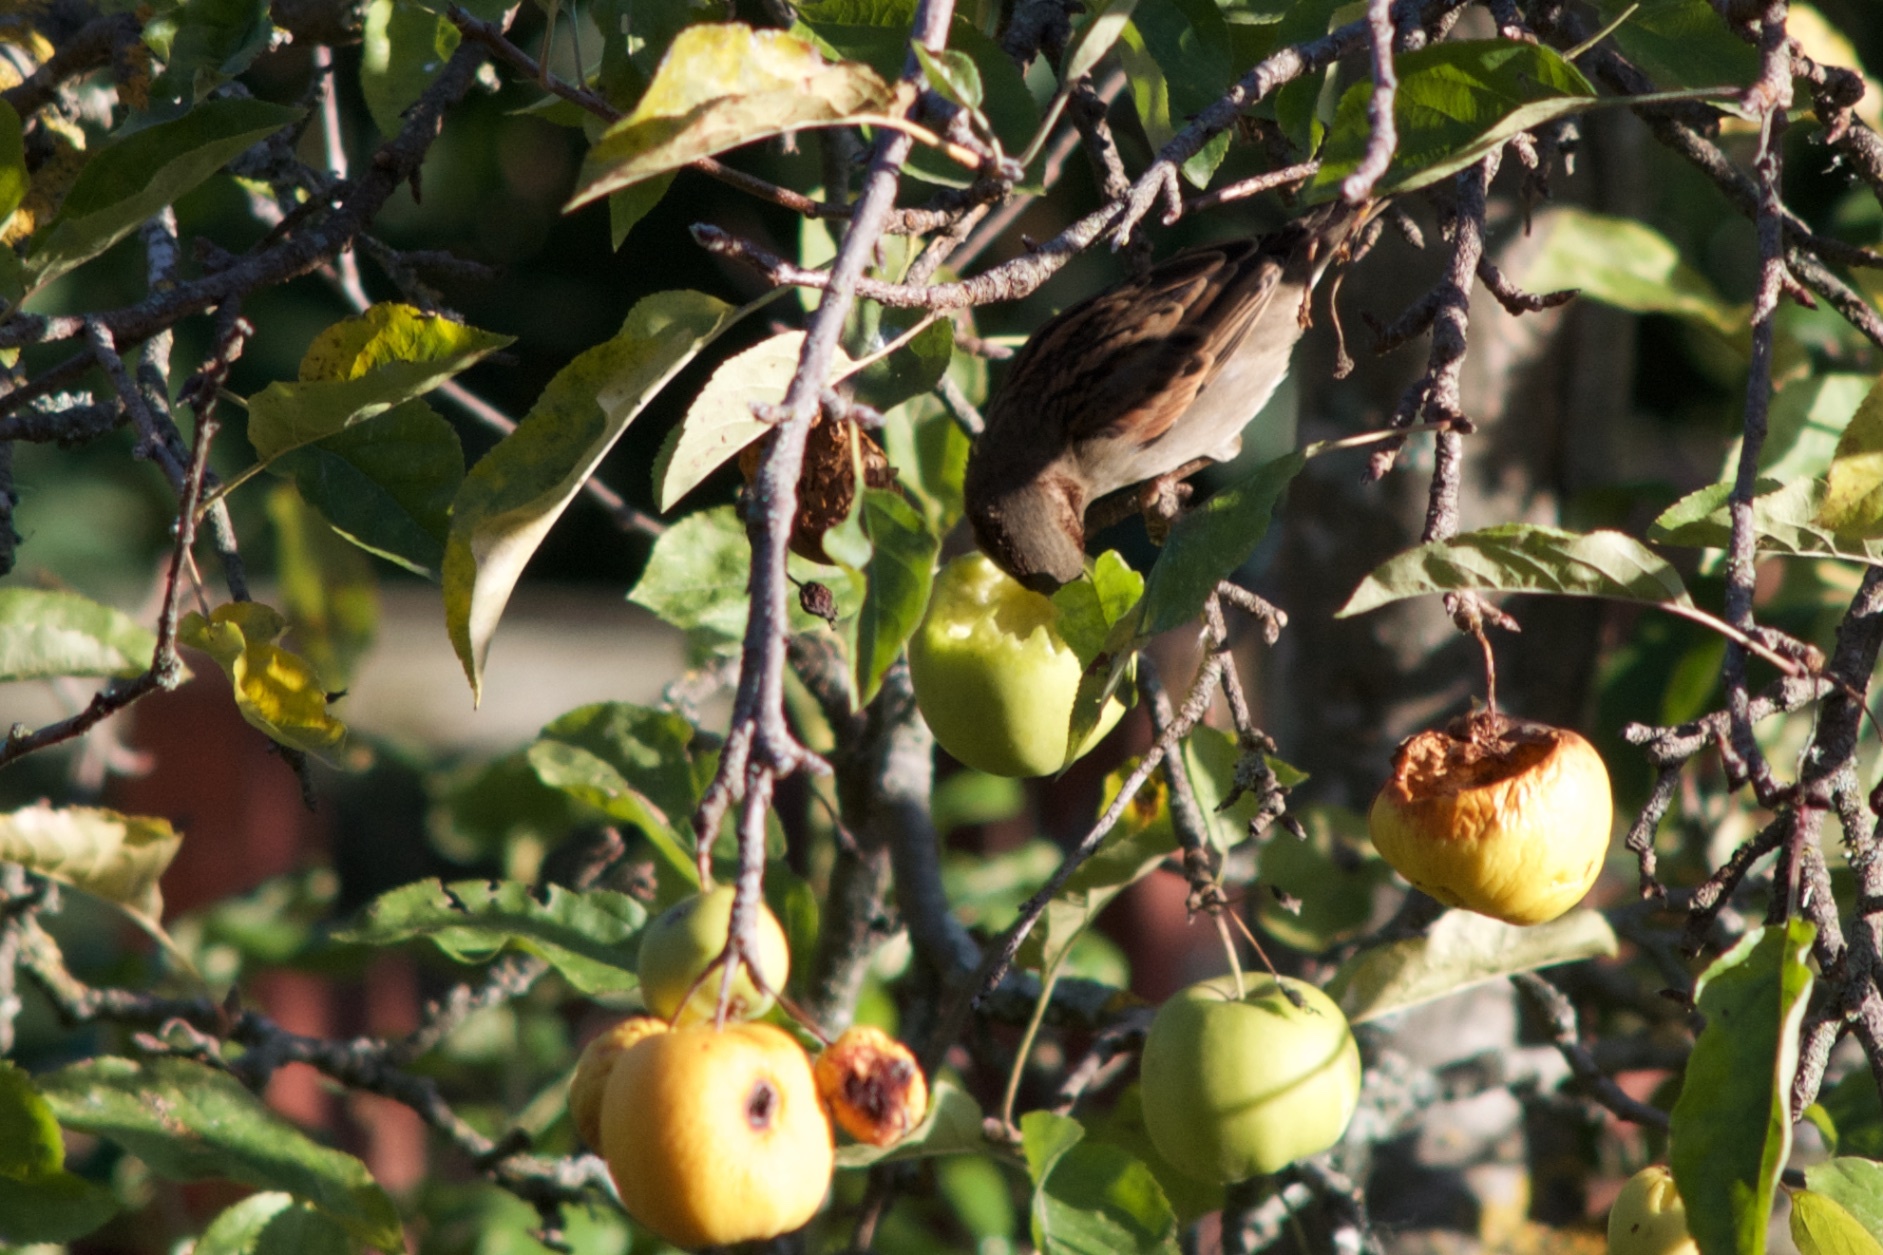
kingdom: Animalia
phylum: Chordata
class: Aves
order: Passeriformes
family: Passeridae
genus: Passer
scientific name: Passer domesticus
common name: House sparrow
